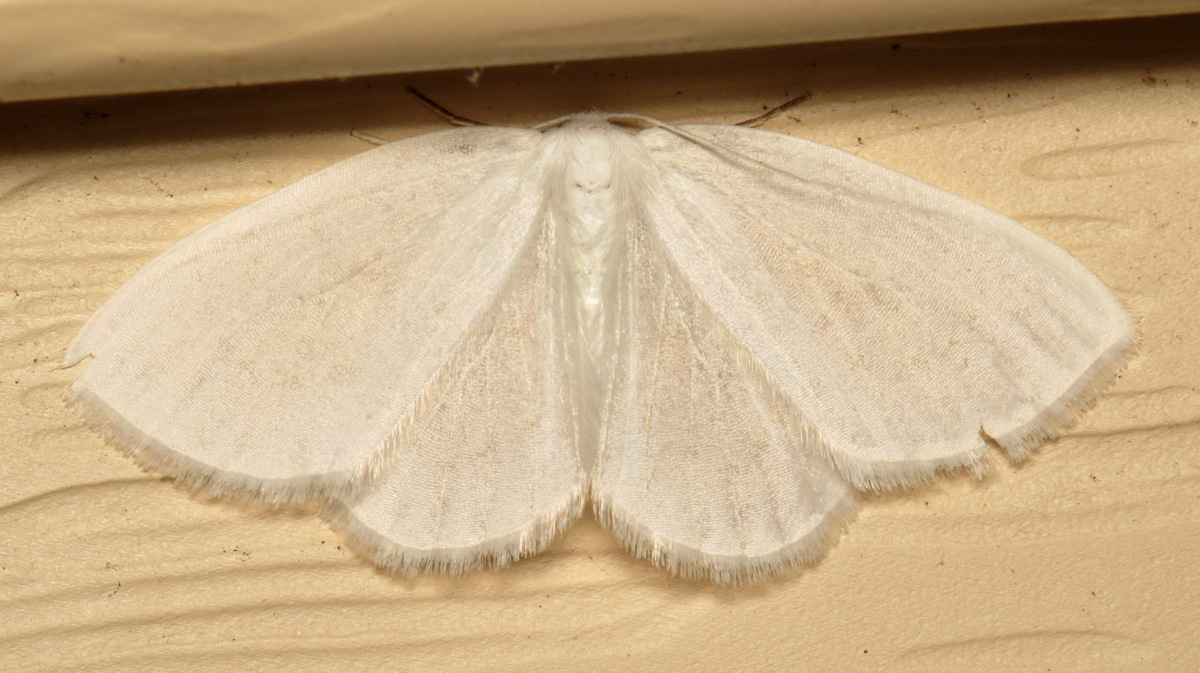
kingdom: Animalia
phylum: Arthropoda
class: Insecta
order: Lepidoptera
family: Geometridae
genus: Lomographa
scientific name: Lomographa vestaliata
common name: White spring moth
